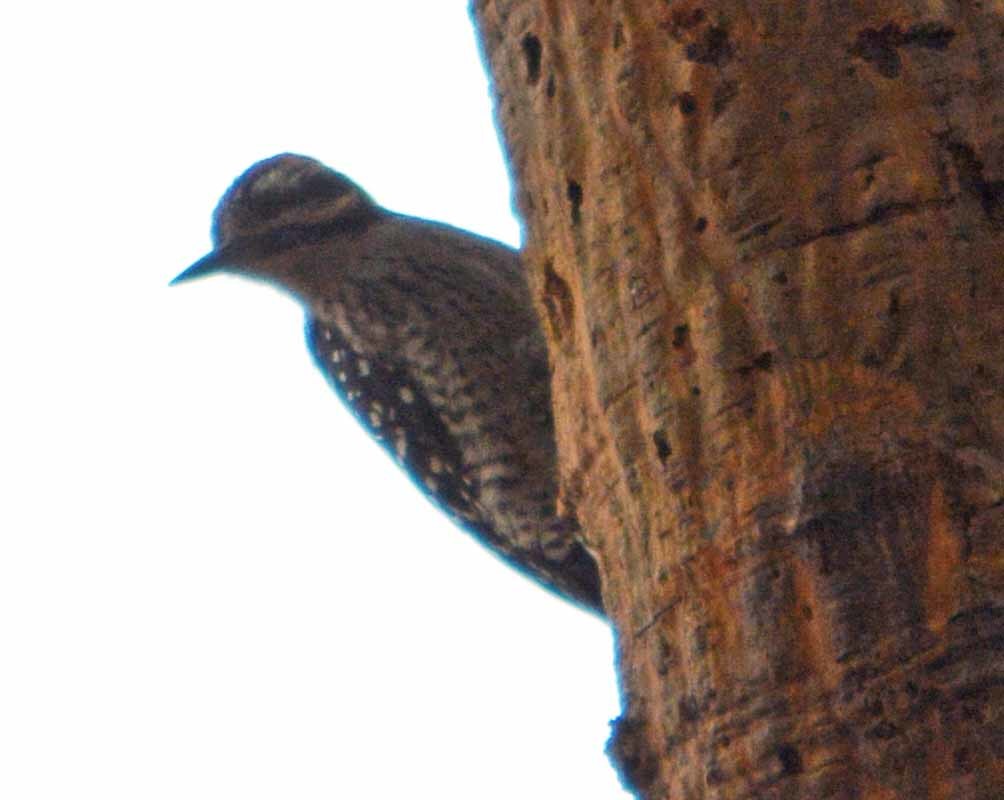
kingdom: Animalia
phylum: Chordata
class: Aves
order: Piciformes
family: Picidae
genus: Dryobates
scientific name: Dryobates scalaris
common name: Ladder-backed woodpecker
